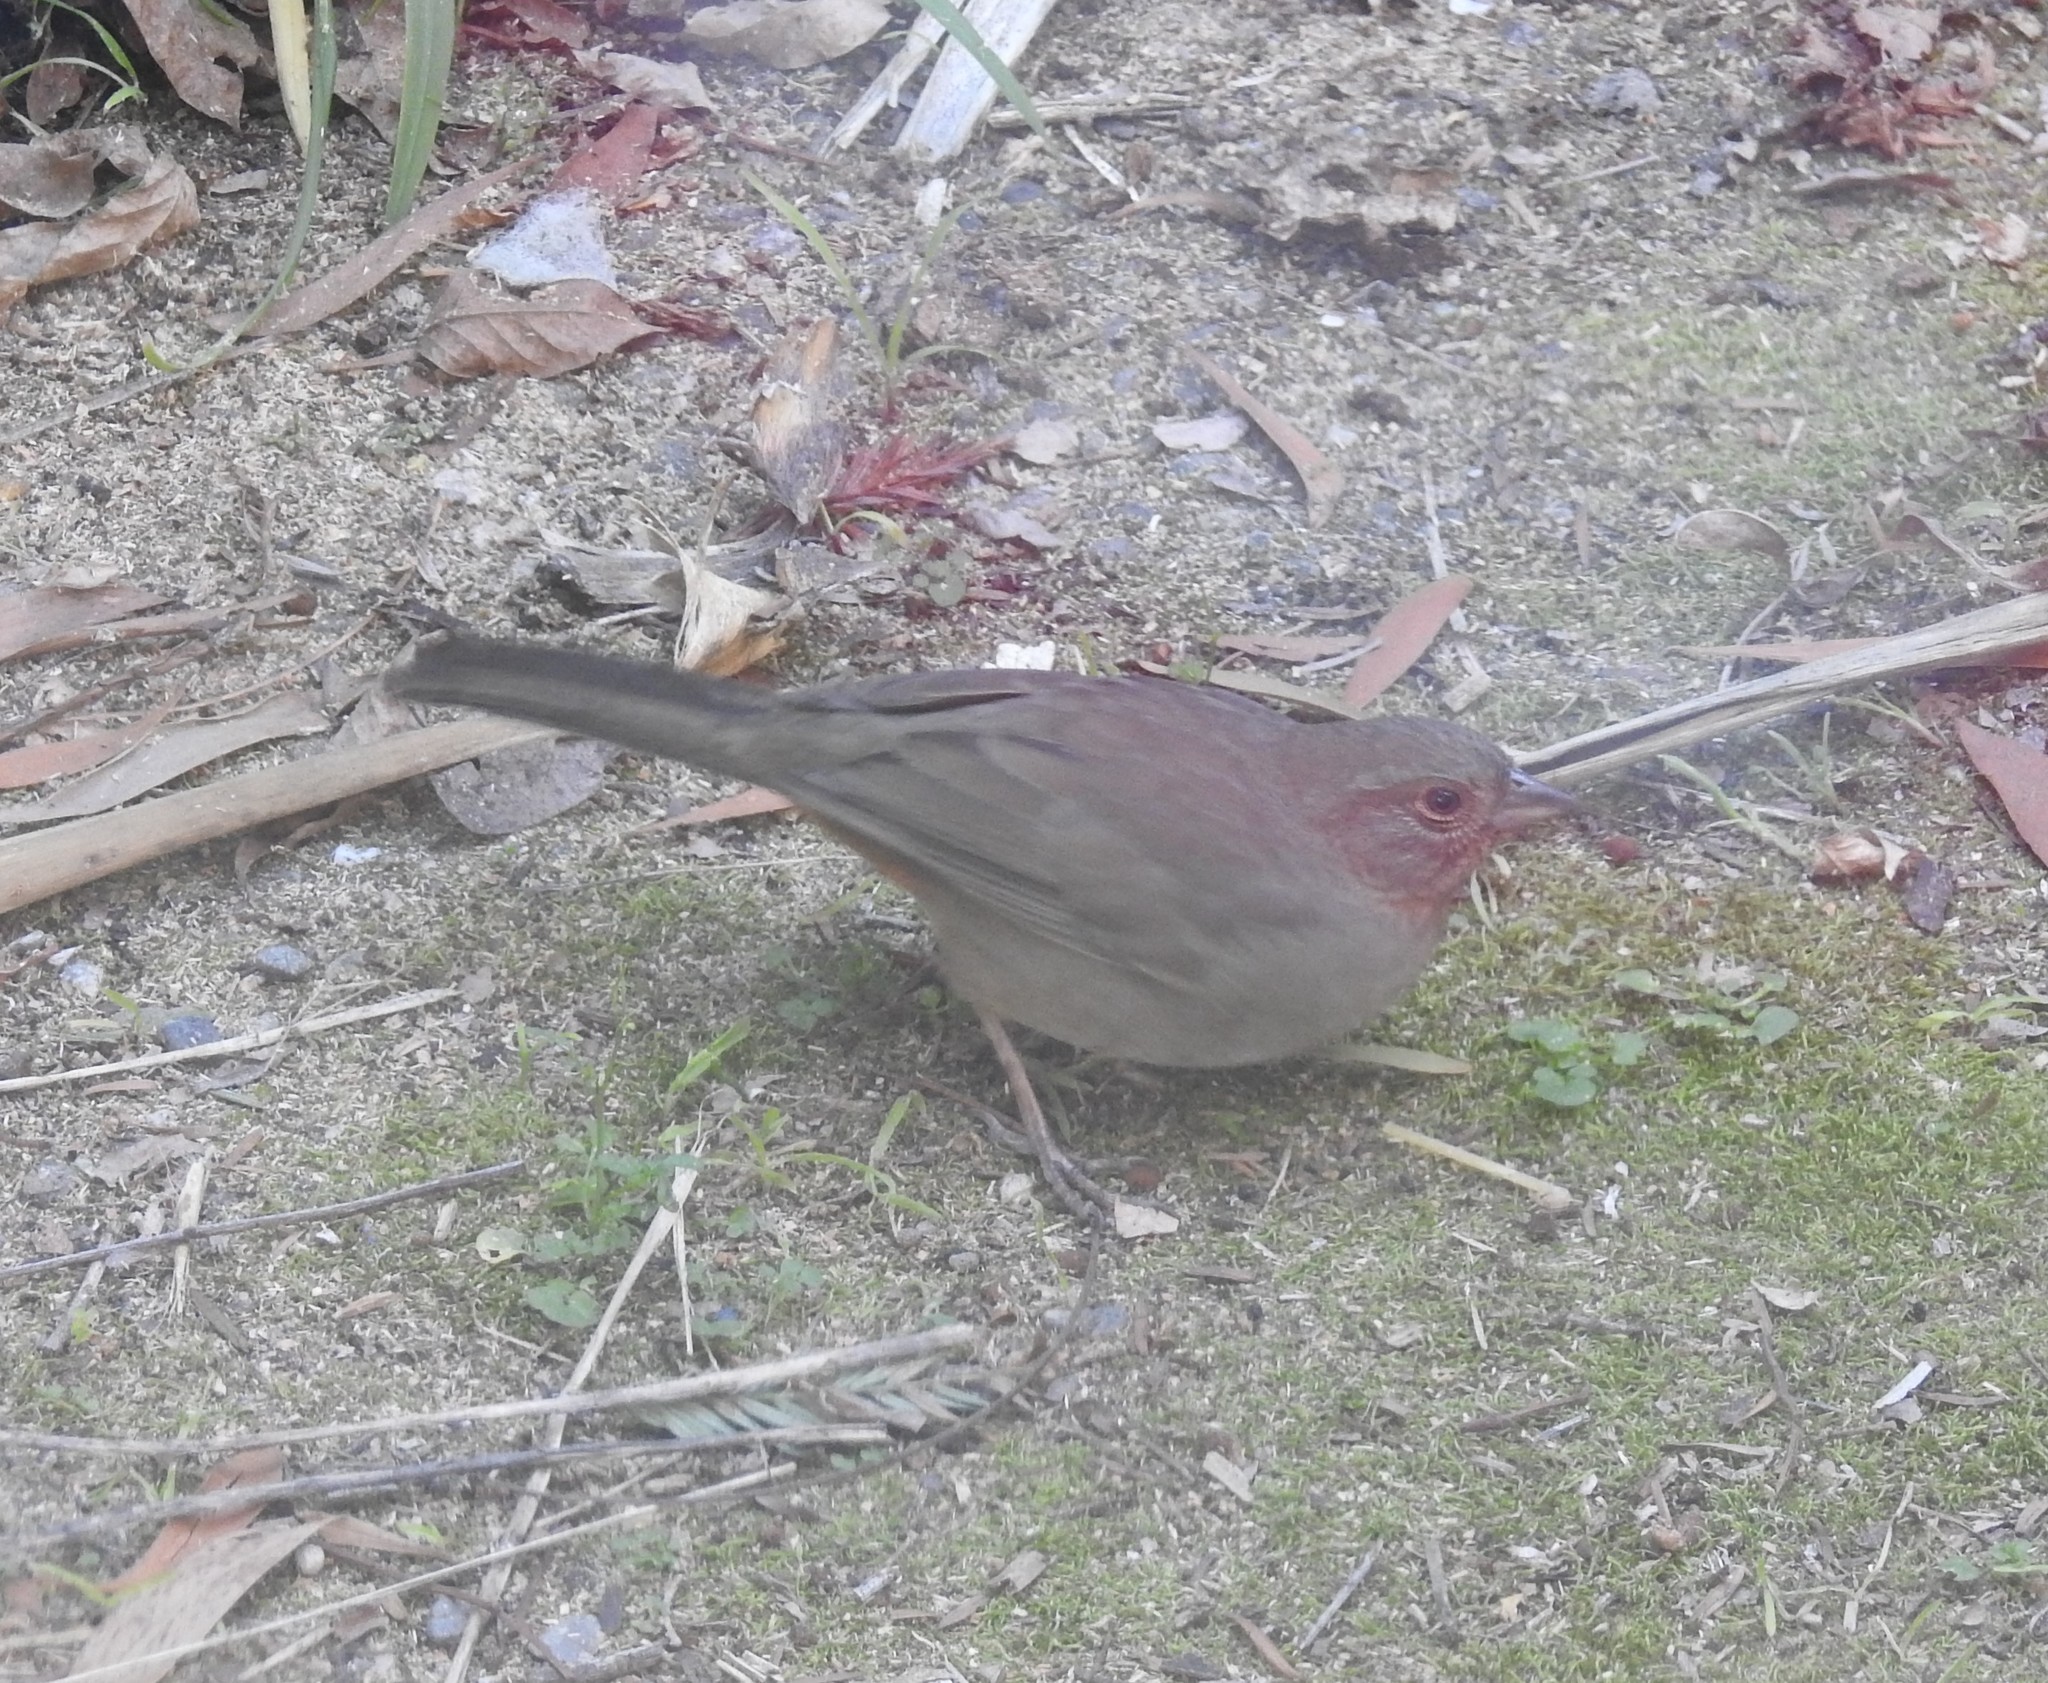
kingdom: Animalia
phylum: Chordata
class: Aves
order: Passeriformes
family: Passerellidae
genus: Melozone
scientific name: Melozone crissalis
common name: California towhee
